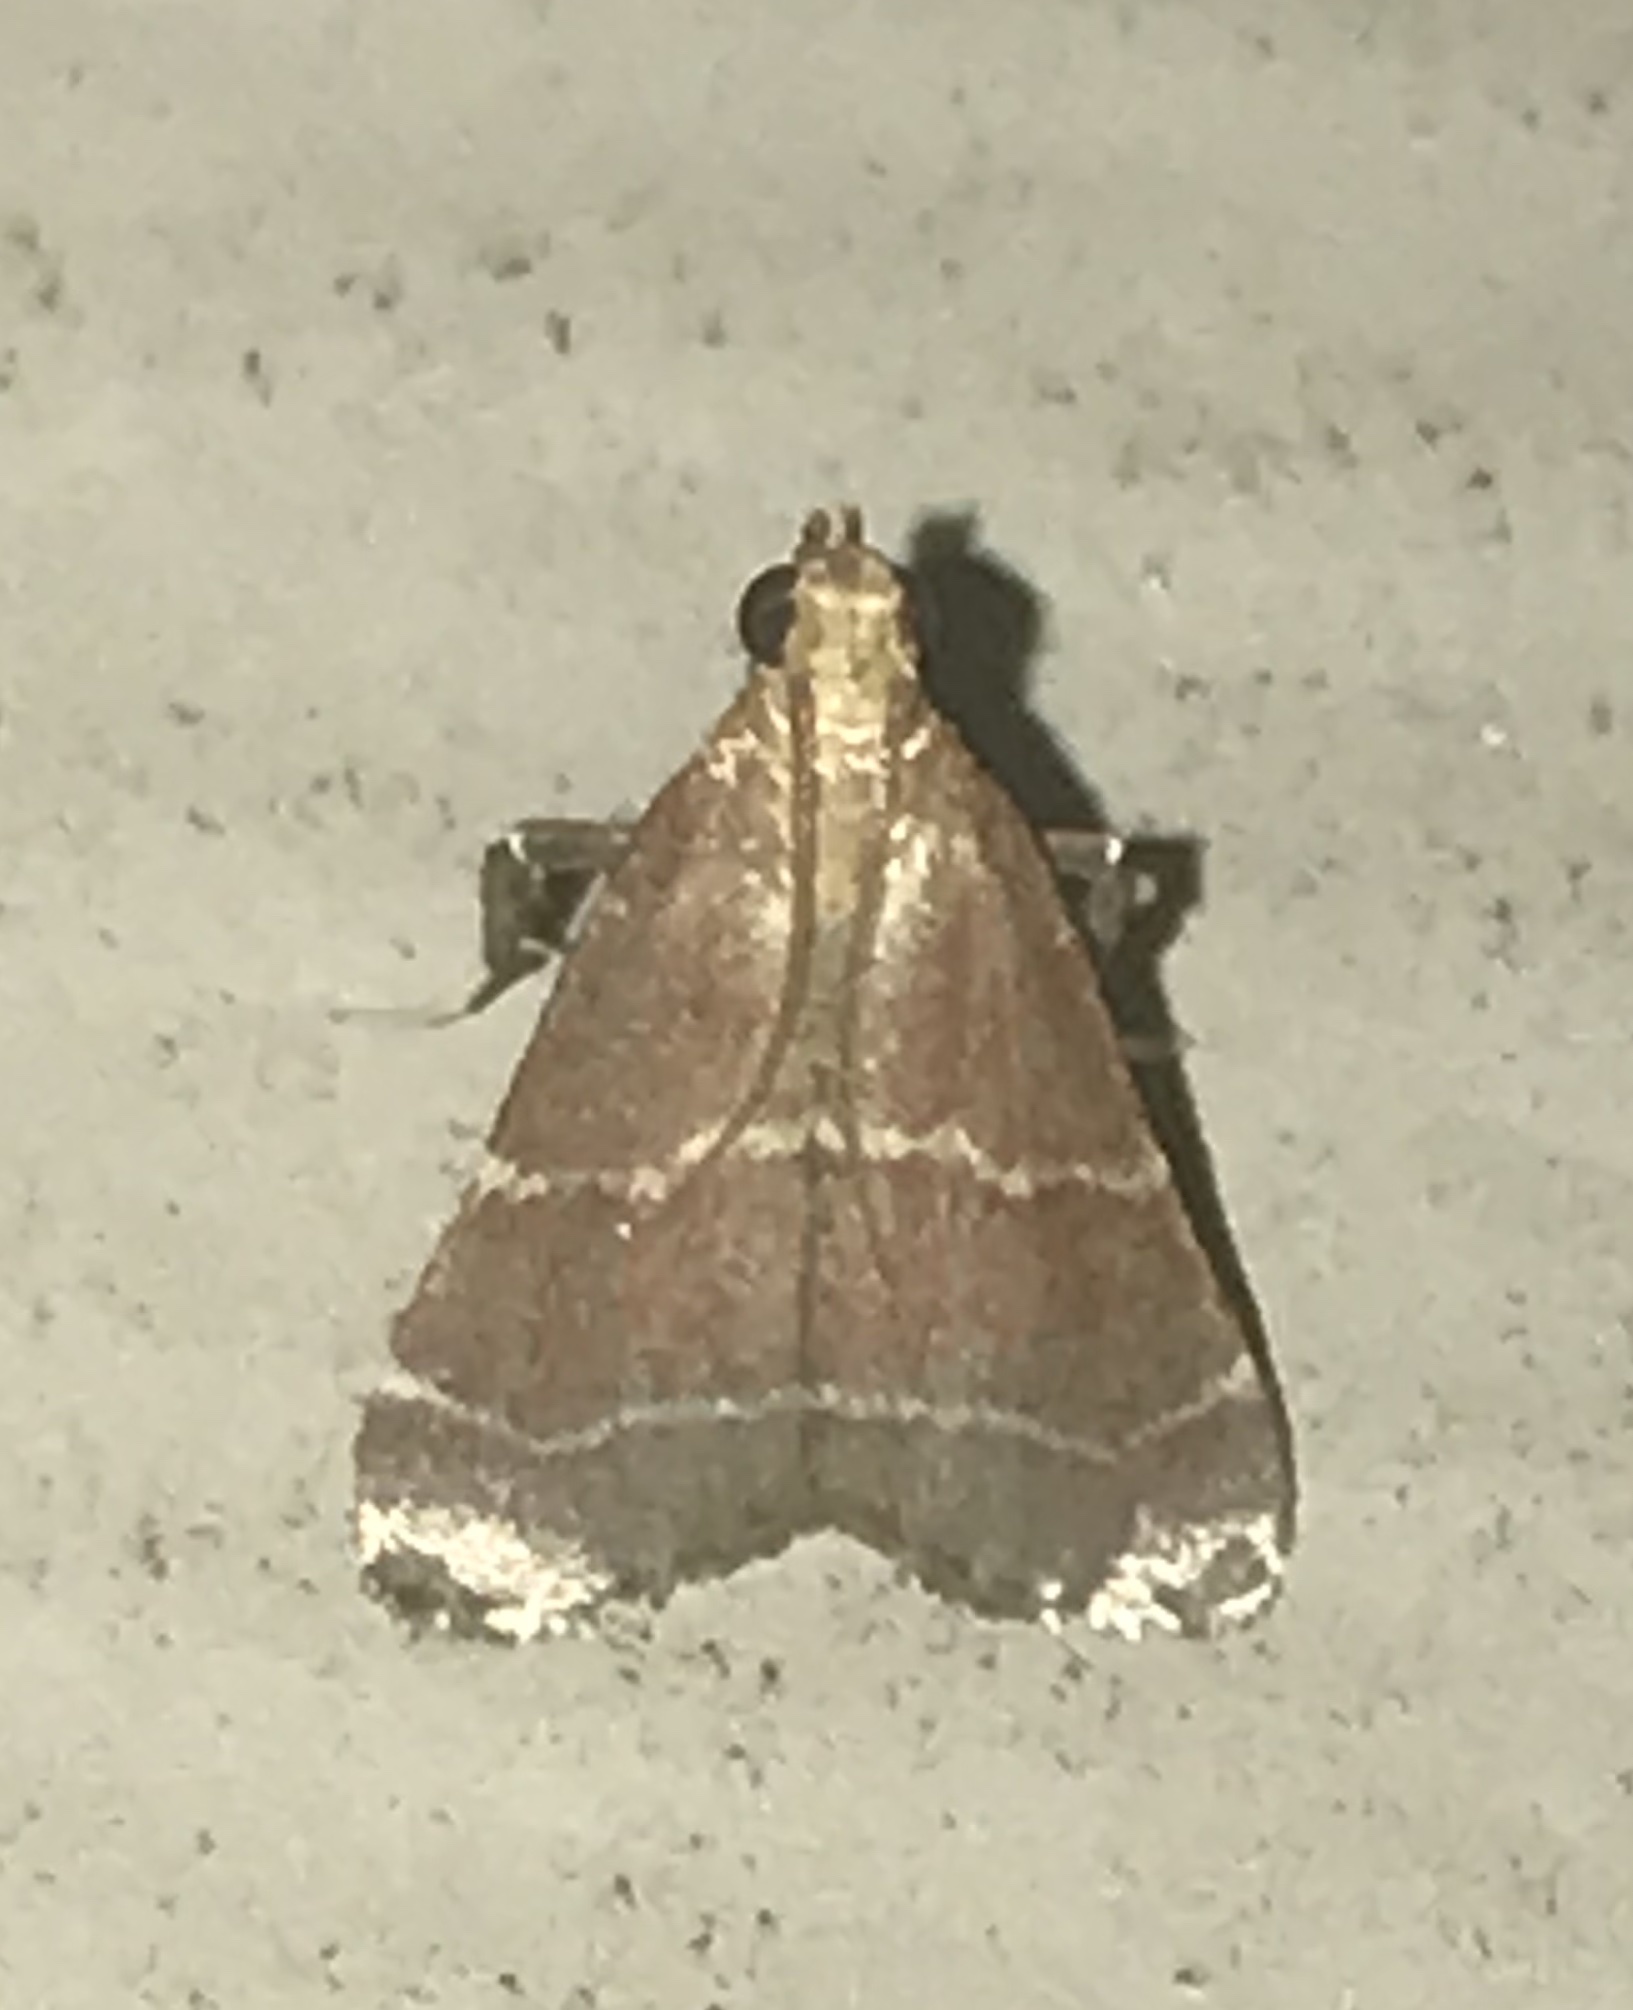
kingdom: Animalia
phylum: Arthropoda
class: Insecta
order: Lepidoptera
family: Pyralidae
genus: Arta
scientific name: Arta statalis
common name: Posturing arta moth
